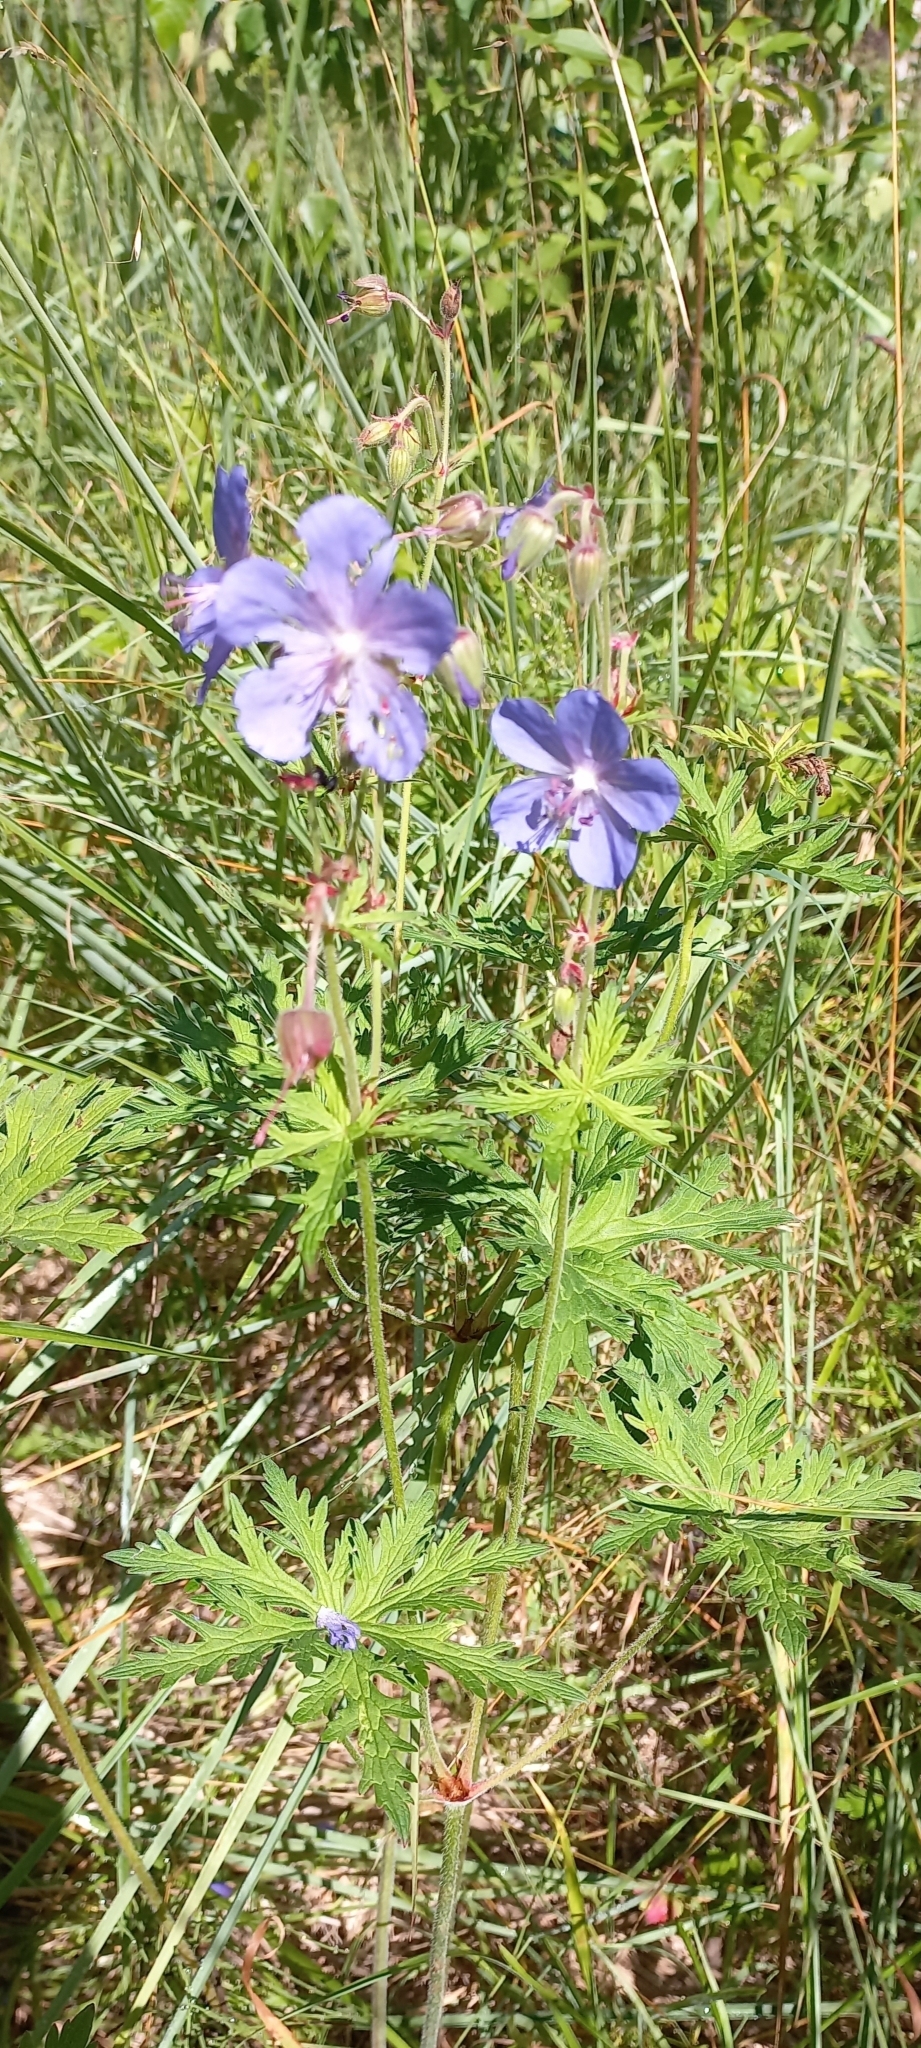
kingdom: Plantae
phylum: Tracheophyta
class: Magnoliopsida
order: Geraniales
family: Geraniaceae
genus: Geranium
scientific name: Geranium pratense
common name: Meadow crane's-bill
